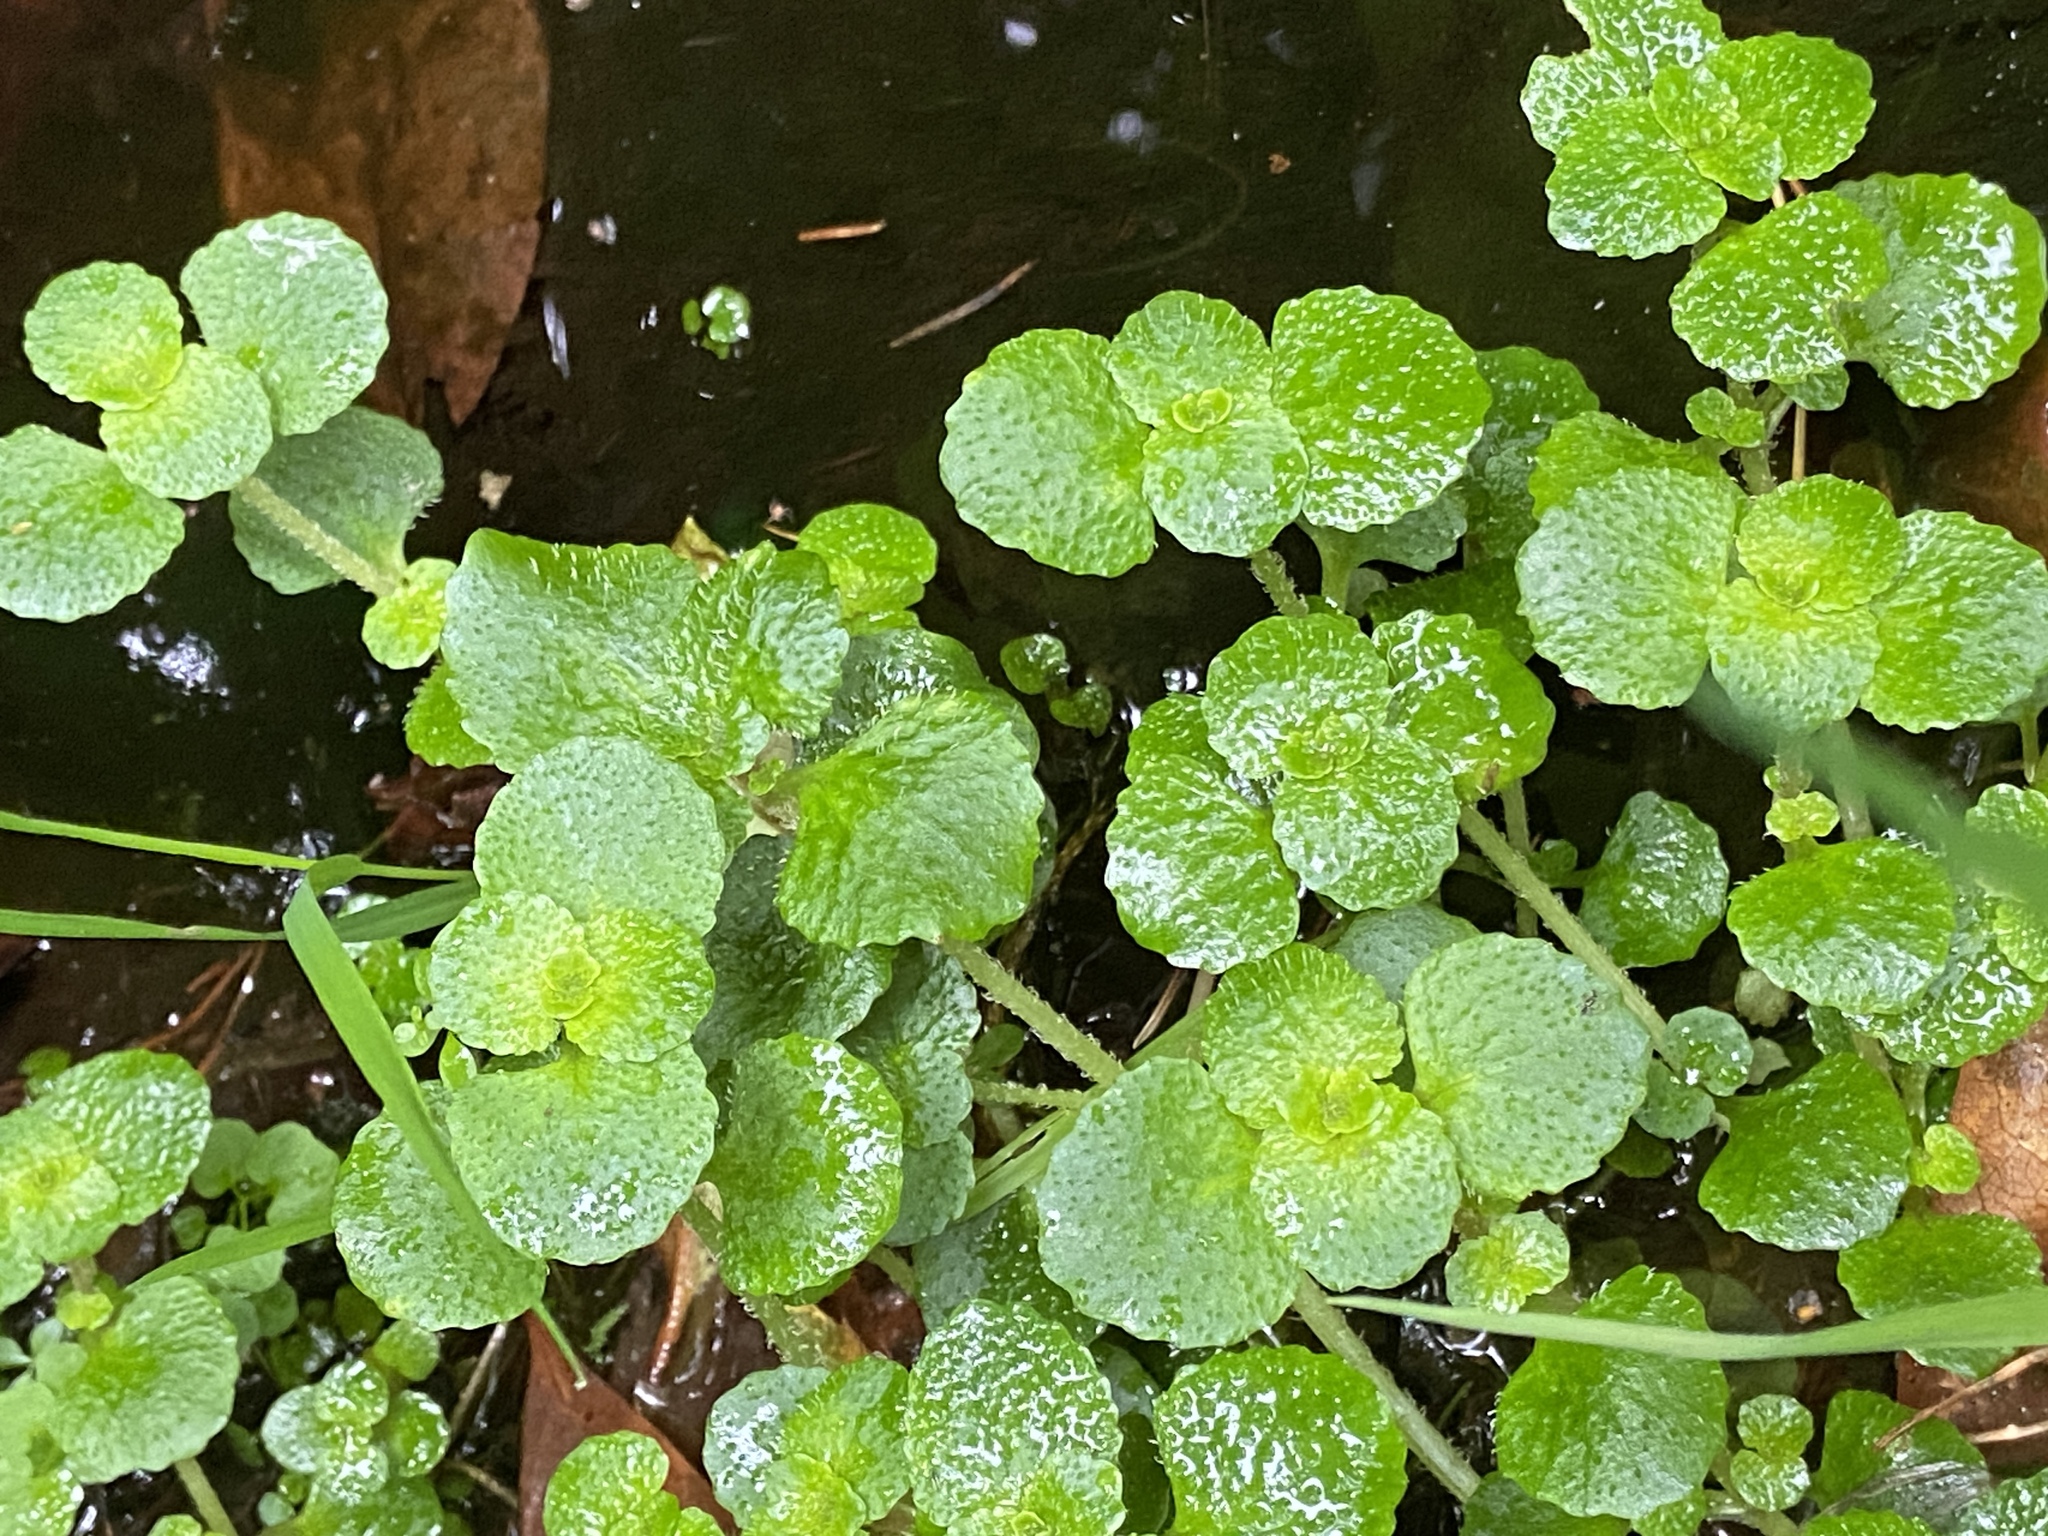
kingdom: Plantae
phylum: Tracheophyta
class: Magnoliopsida
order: Saxifragales
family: Saxifragaceae
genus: Chrysosplenium
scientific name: Chrysosplenium oppositifolium
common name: Opposite-leaved golden-saxifrage
